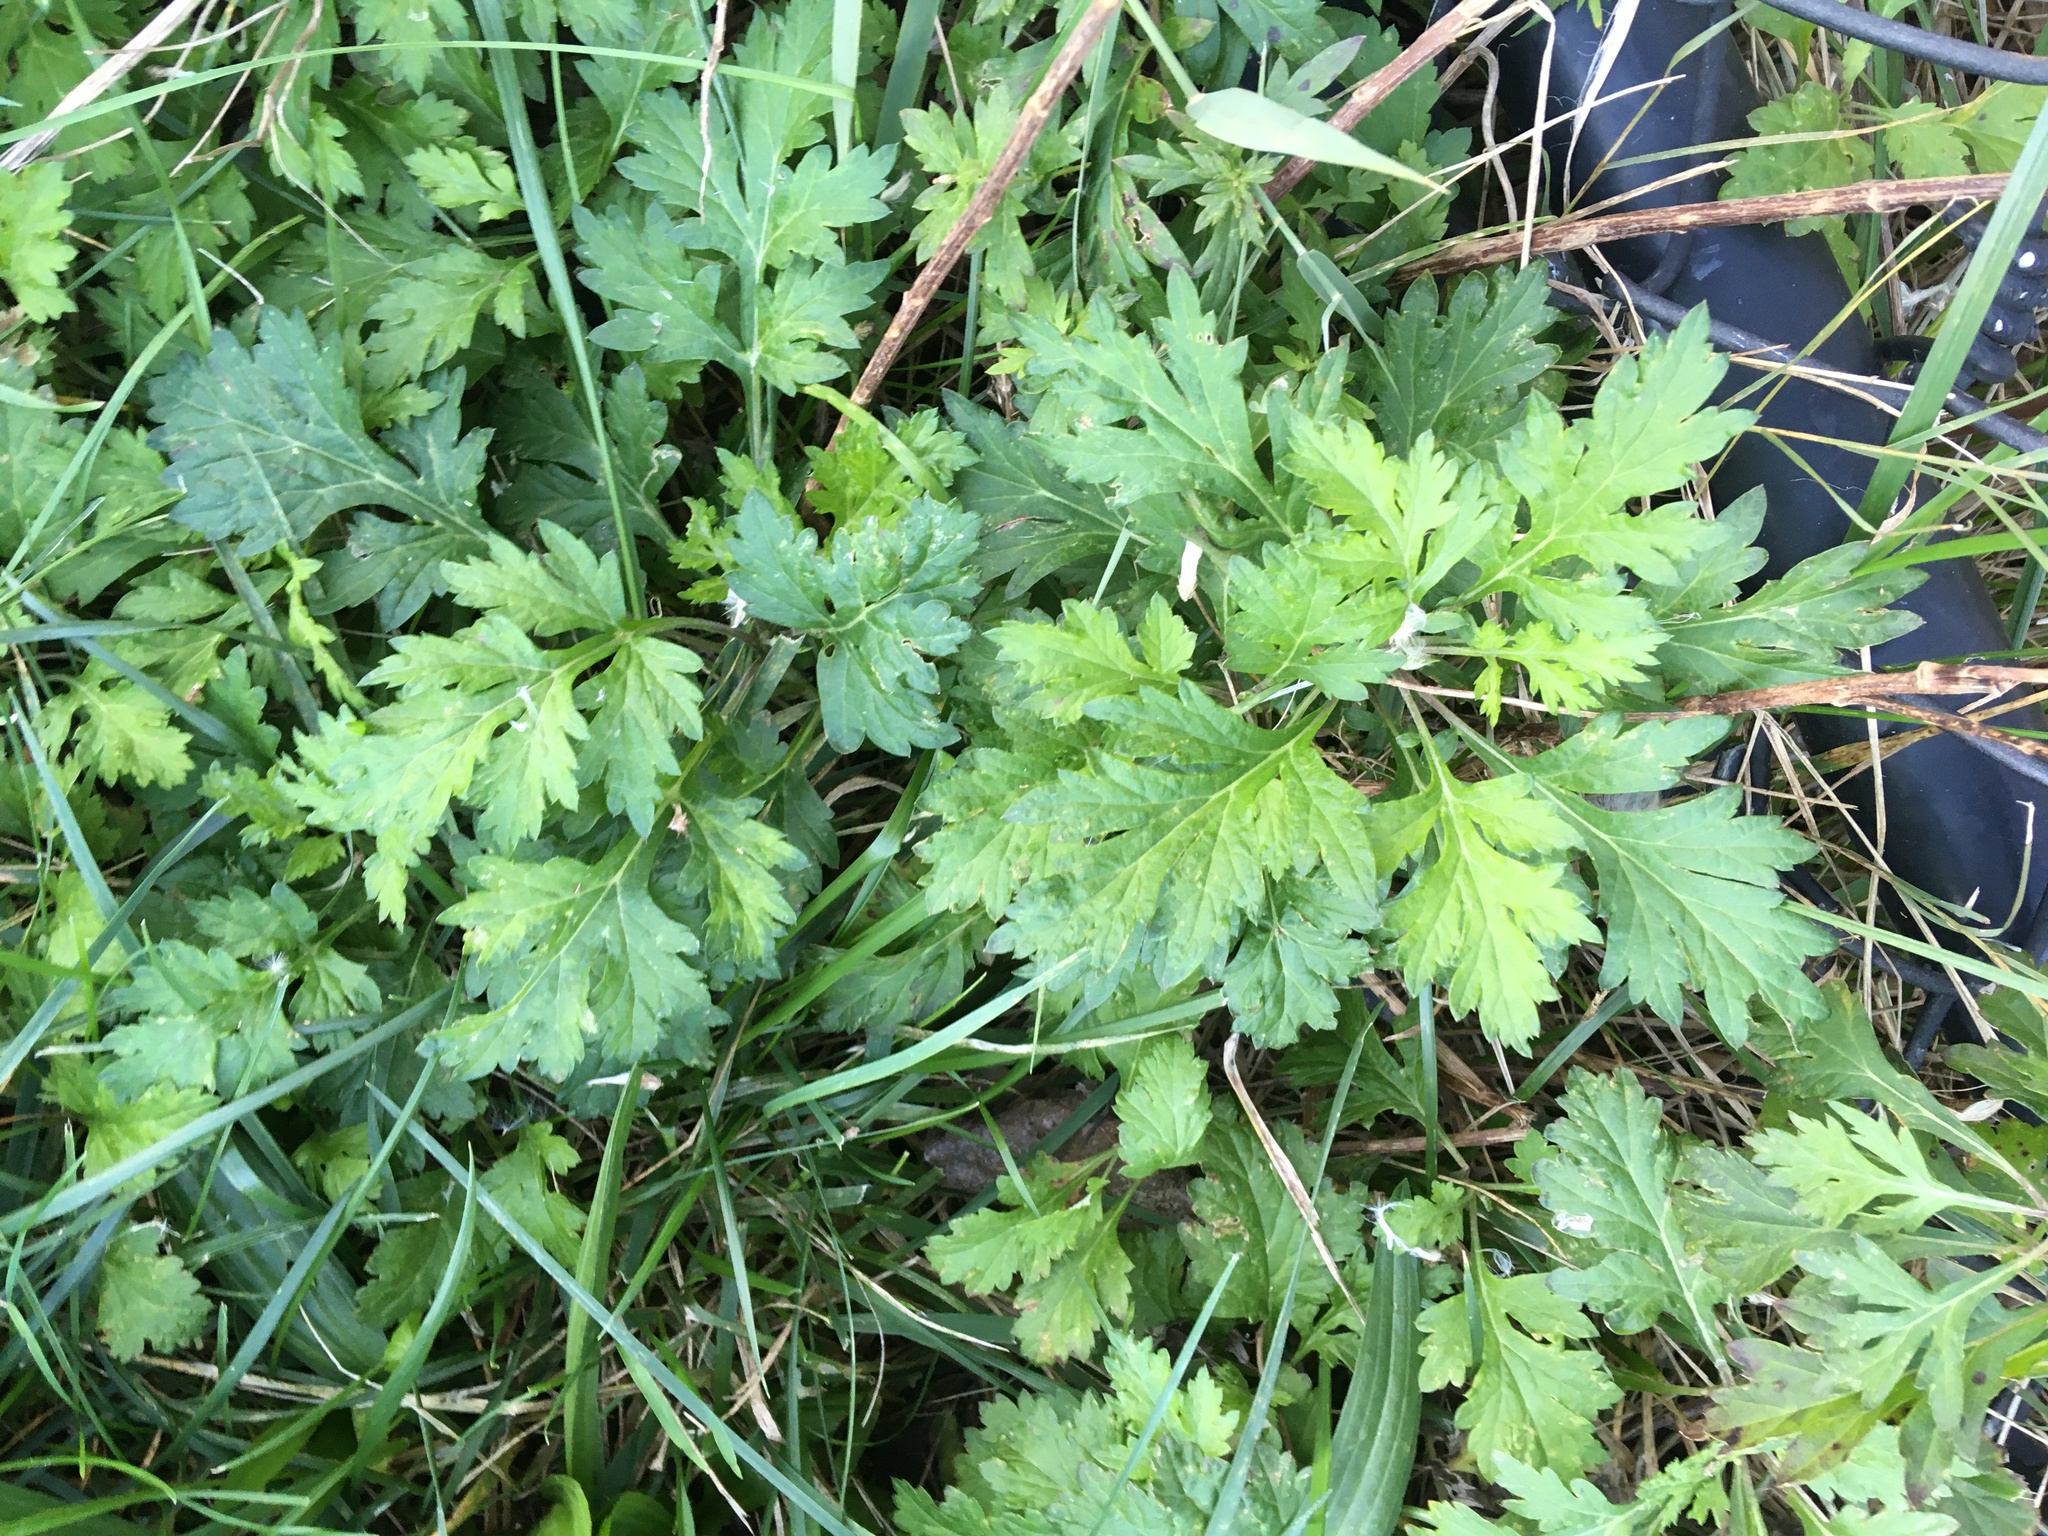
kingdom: Plantae
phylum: Tracheophyta
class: Magnoliopsida
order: Asterales
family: Asteraceae
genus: Artemisia
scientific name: Artemisia vulgaris
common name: Mugwort
